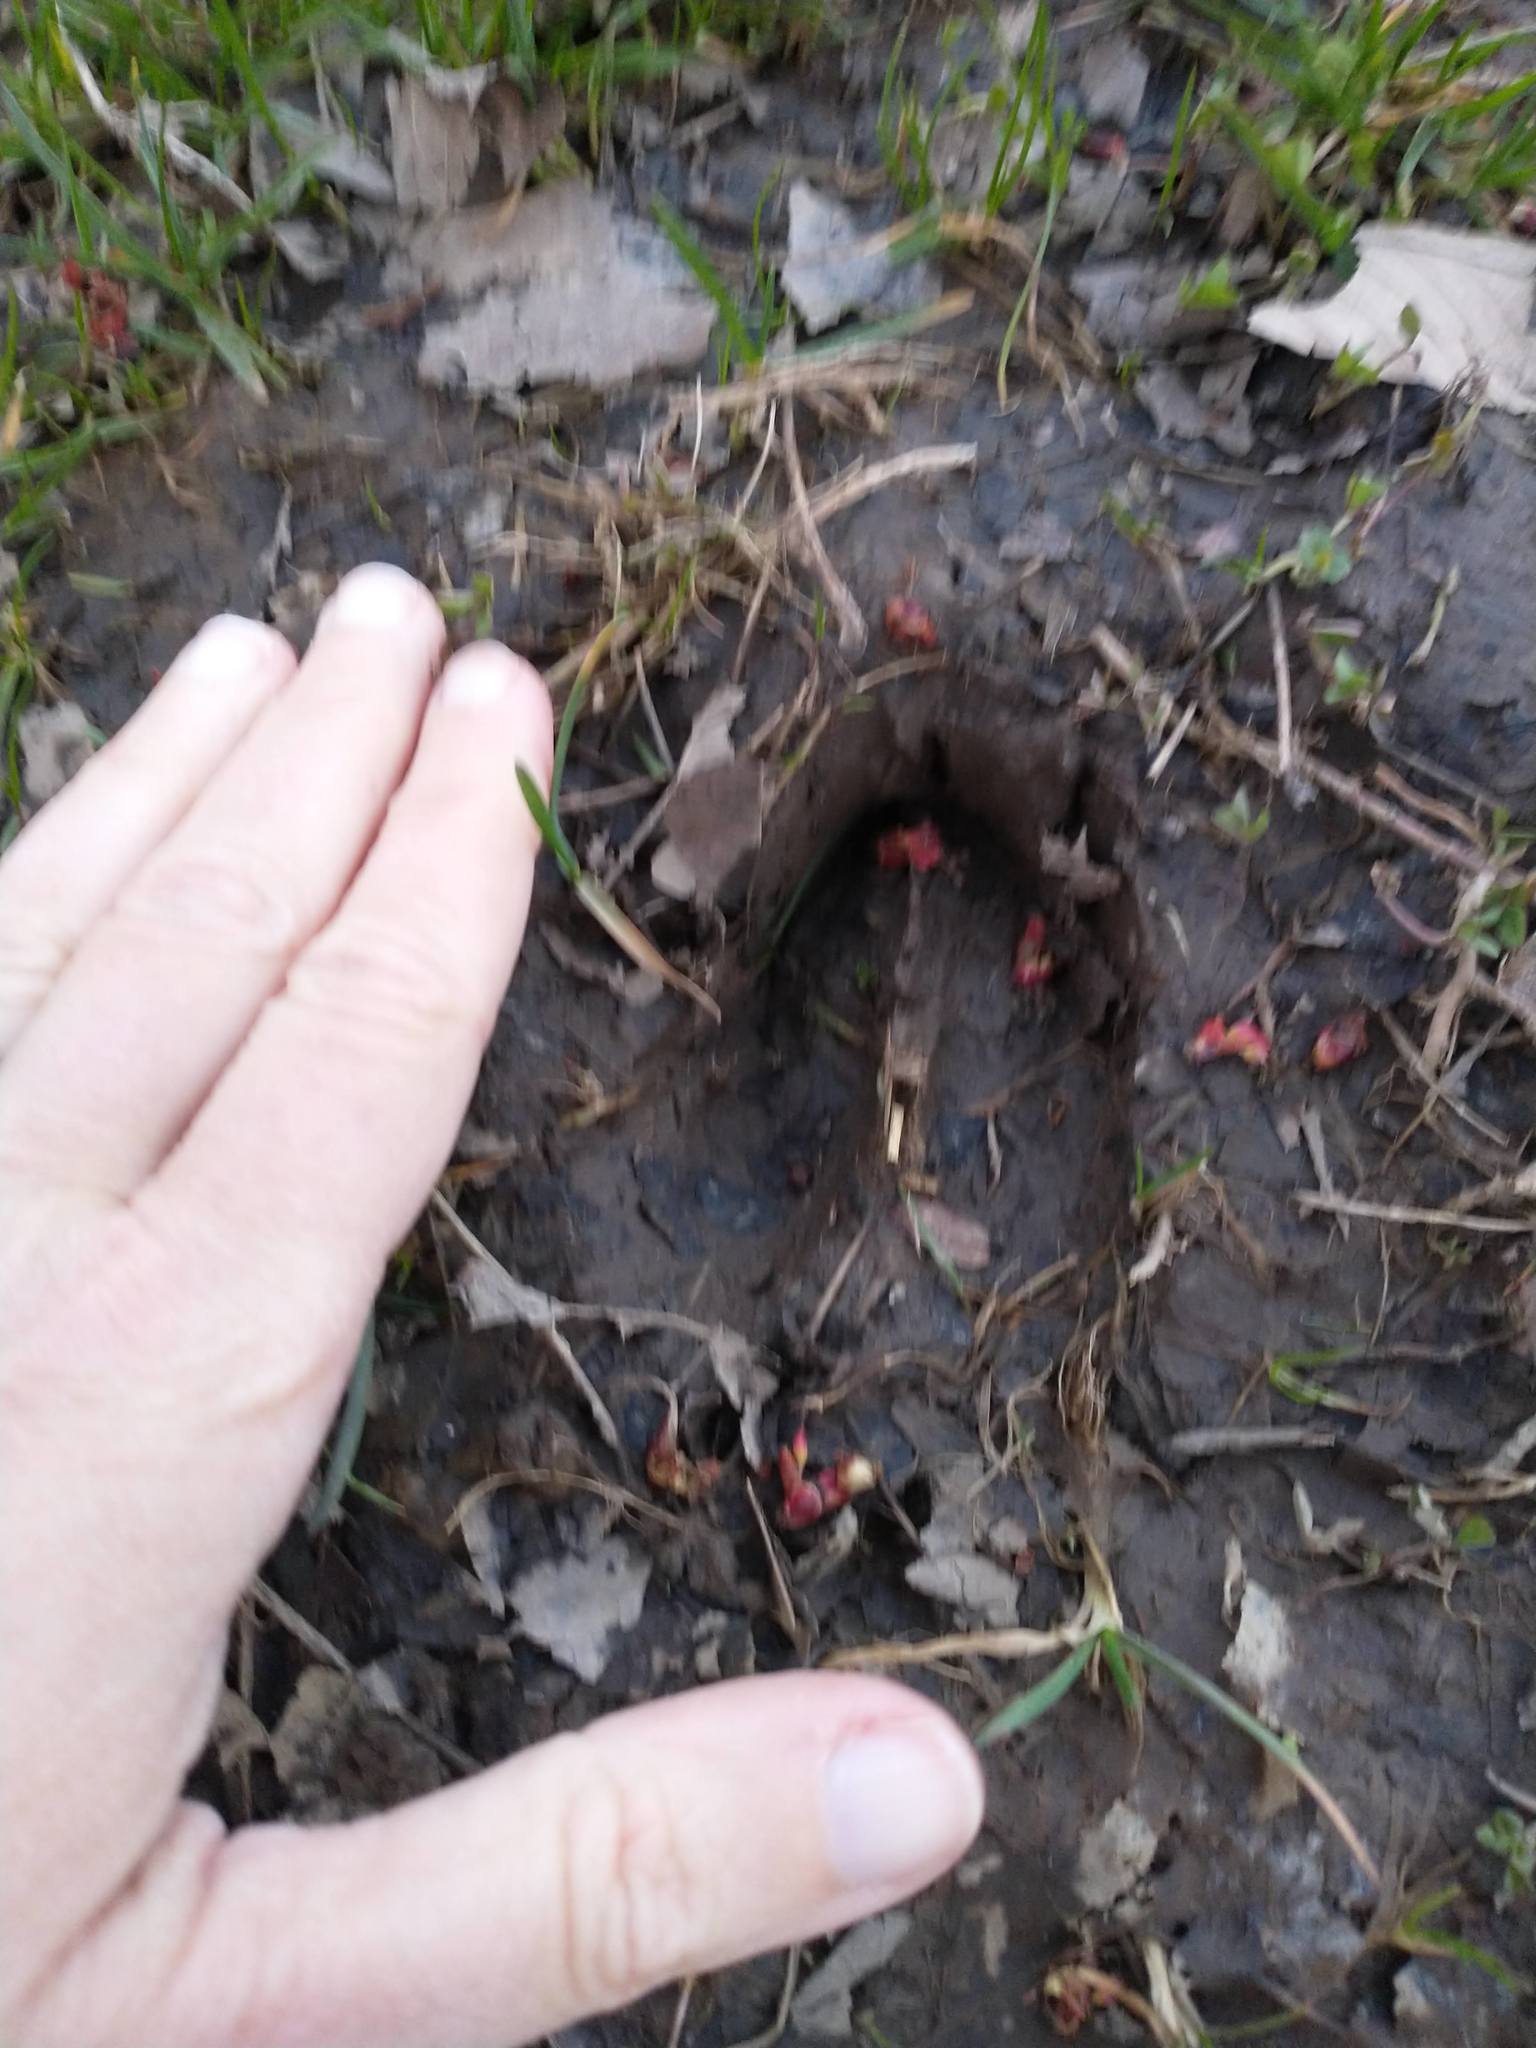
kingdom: Animalia
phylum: Chordata
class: Mammalia
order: Artiodactyla
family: Cervidae
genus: Odocoileus
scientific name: Odocoileus virginianus
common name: White-tailed deer
